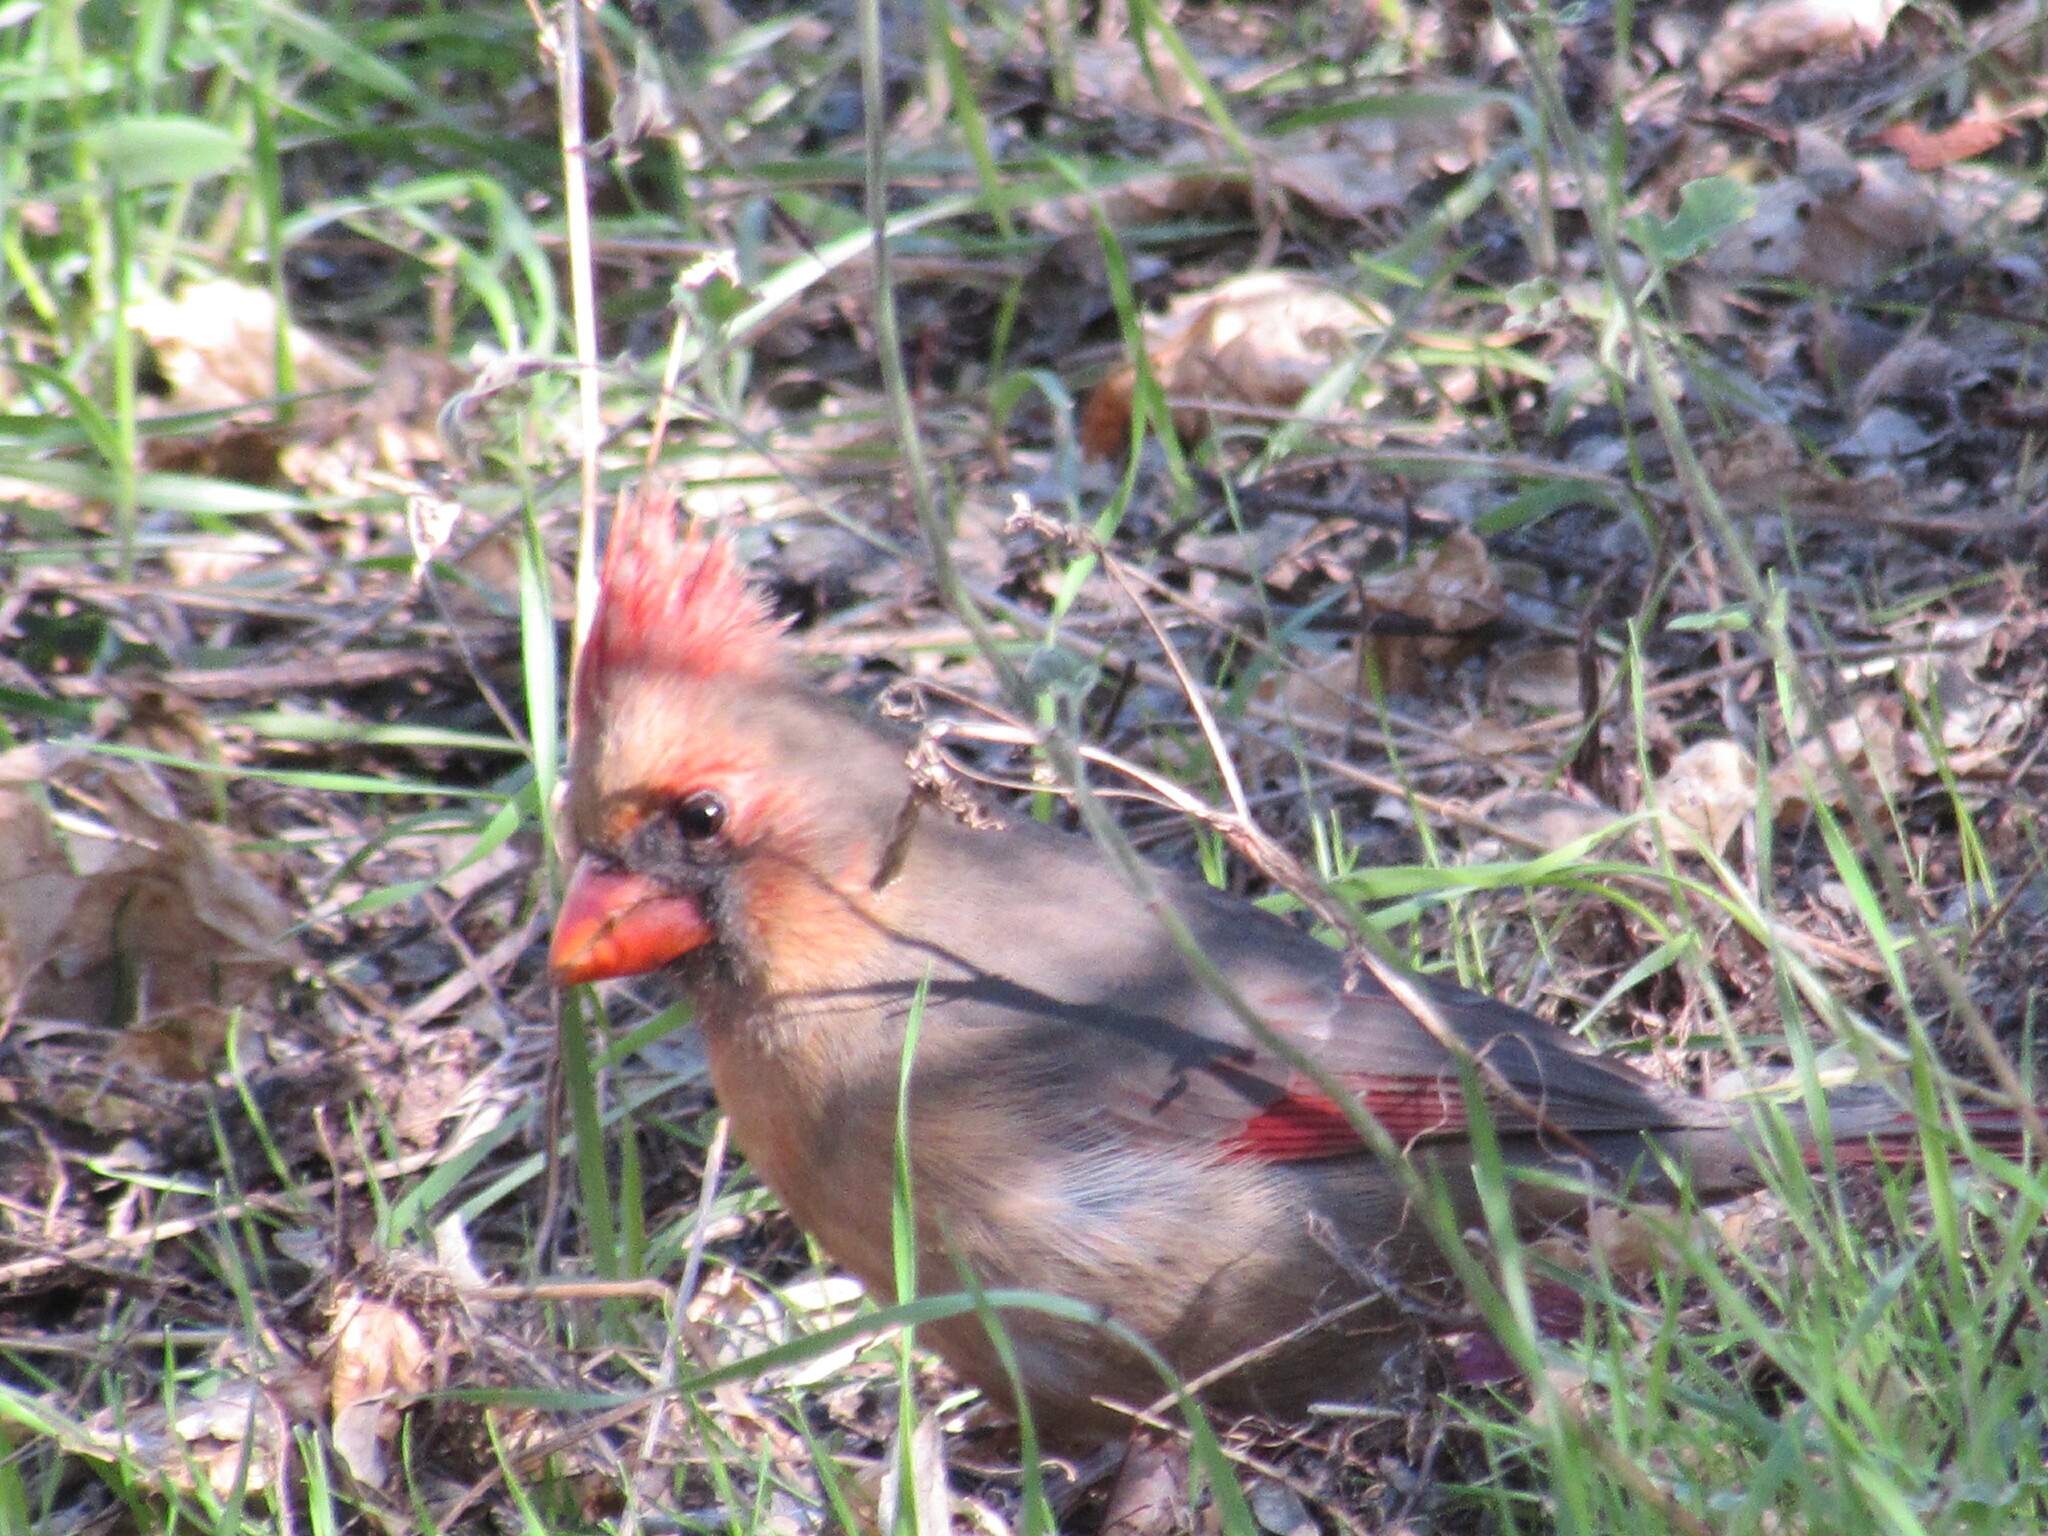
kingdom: Animalia
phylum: Chordata
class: Aves
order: Passeriformes
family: Cardinalidae
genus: Cardinalis
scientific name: Cardinalis cardinalis
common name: Northern cardinal
